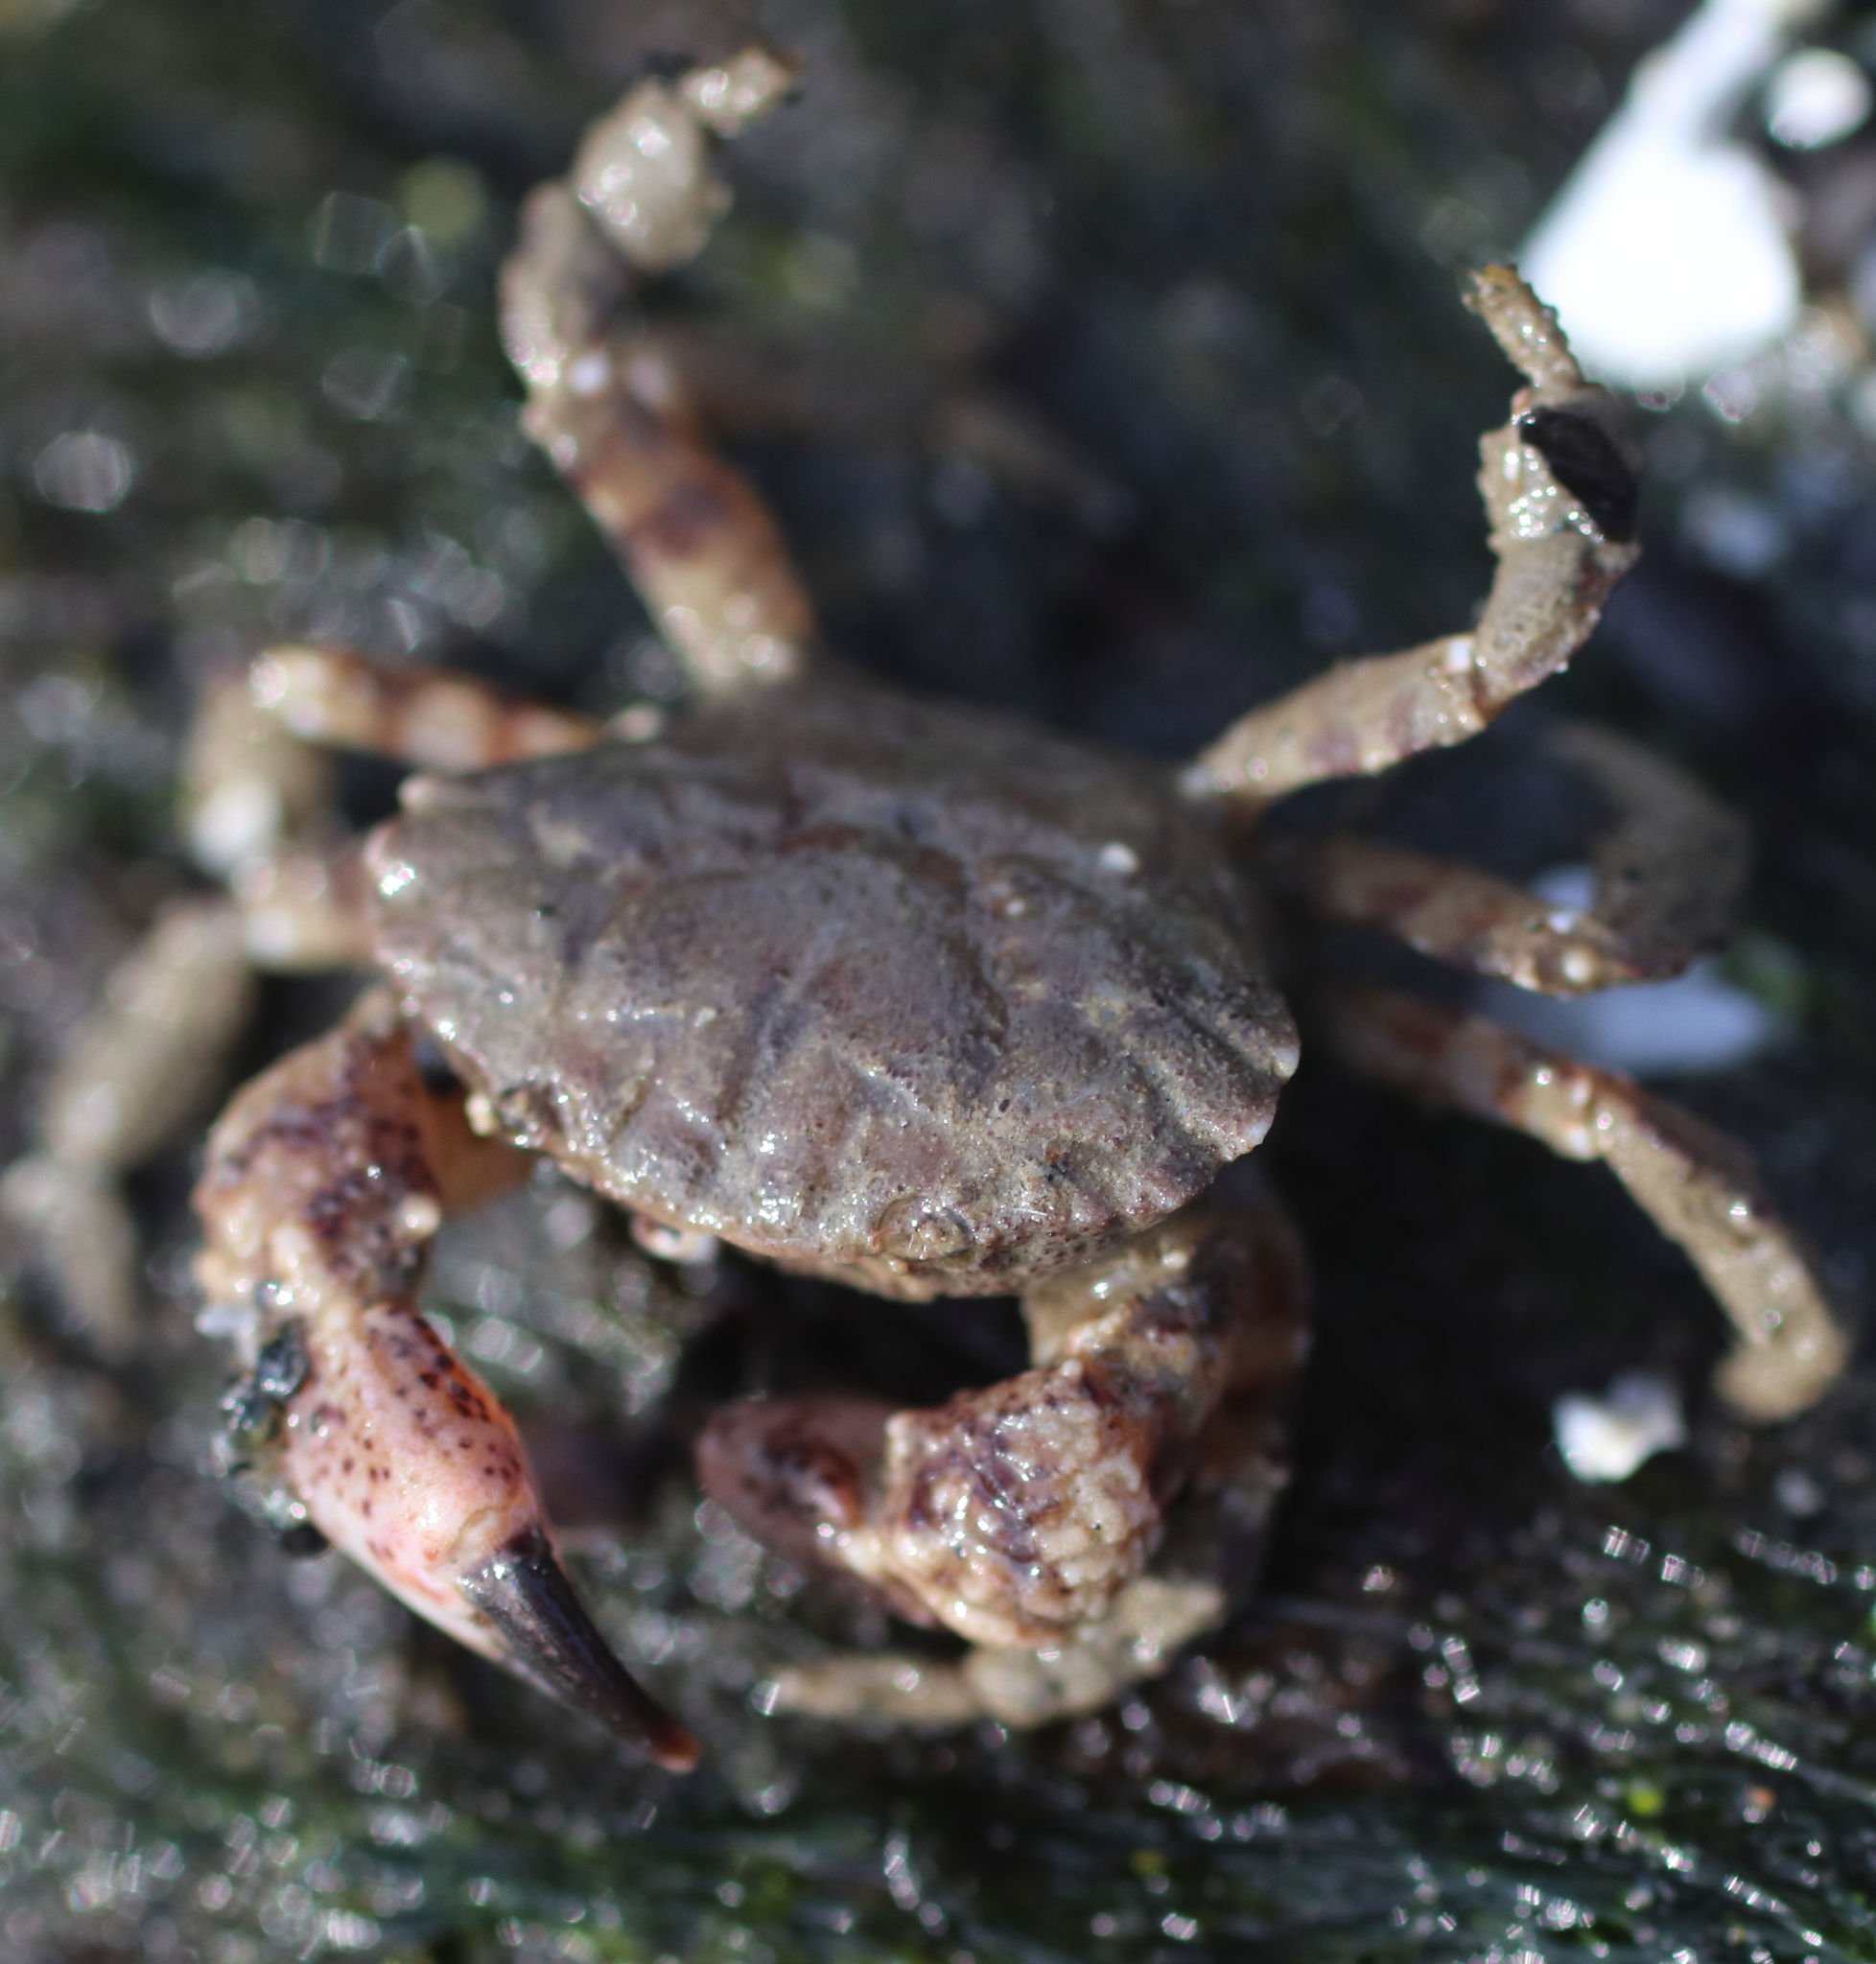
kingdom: Animalia
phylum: Arthropoda
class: Malacostraca
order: Decapoda
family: Panopeidae
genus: Lophopanopeus
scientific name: Lophopanopeus bellus
